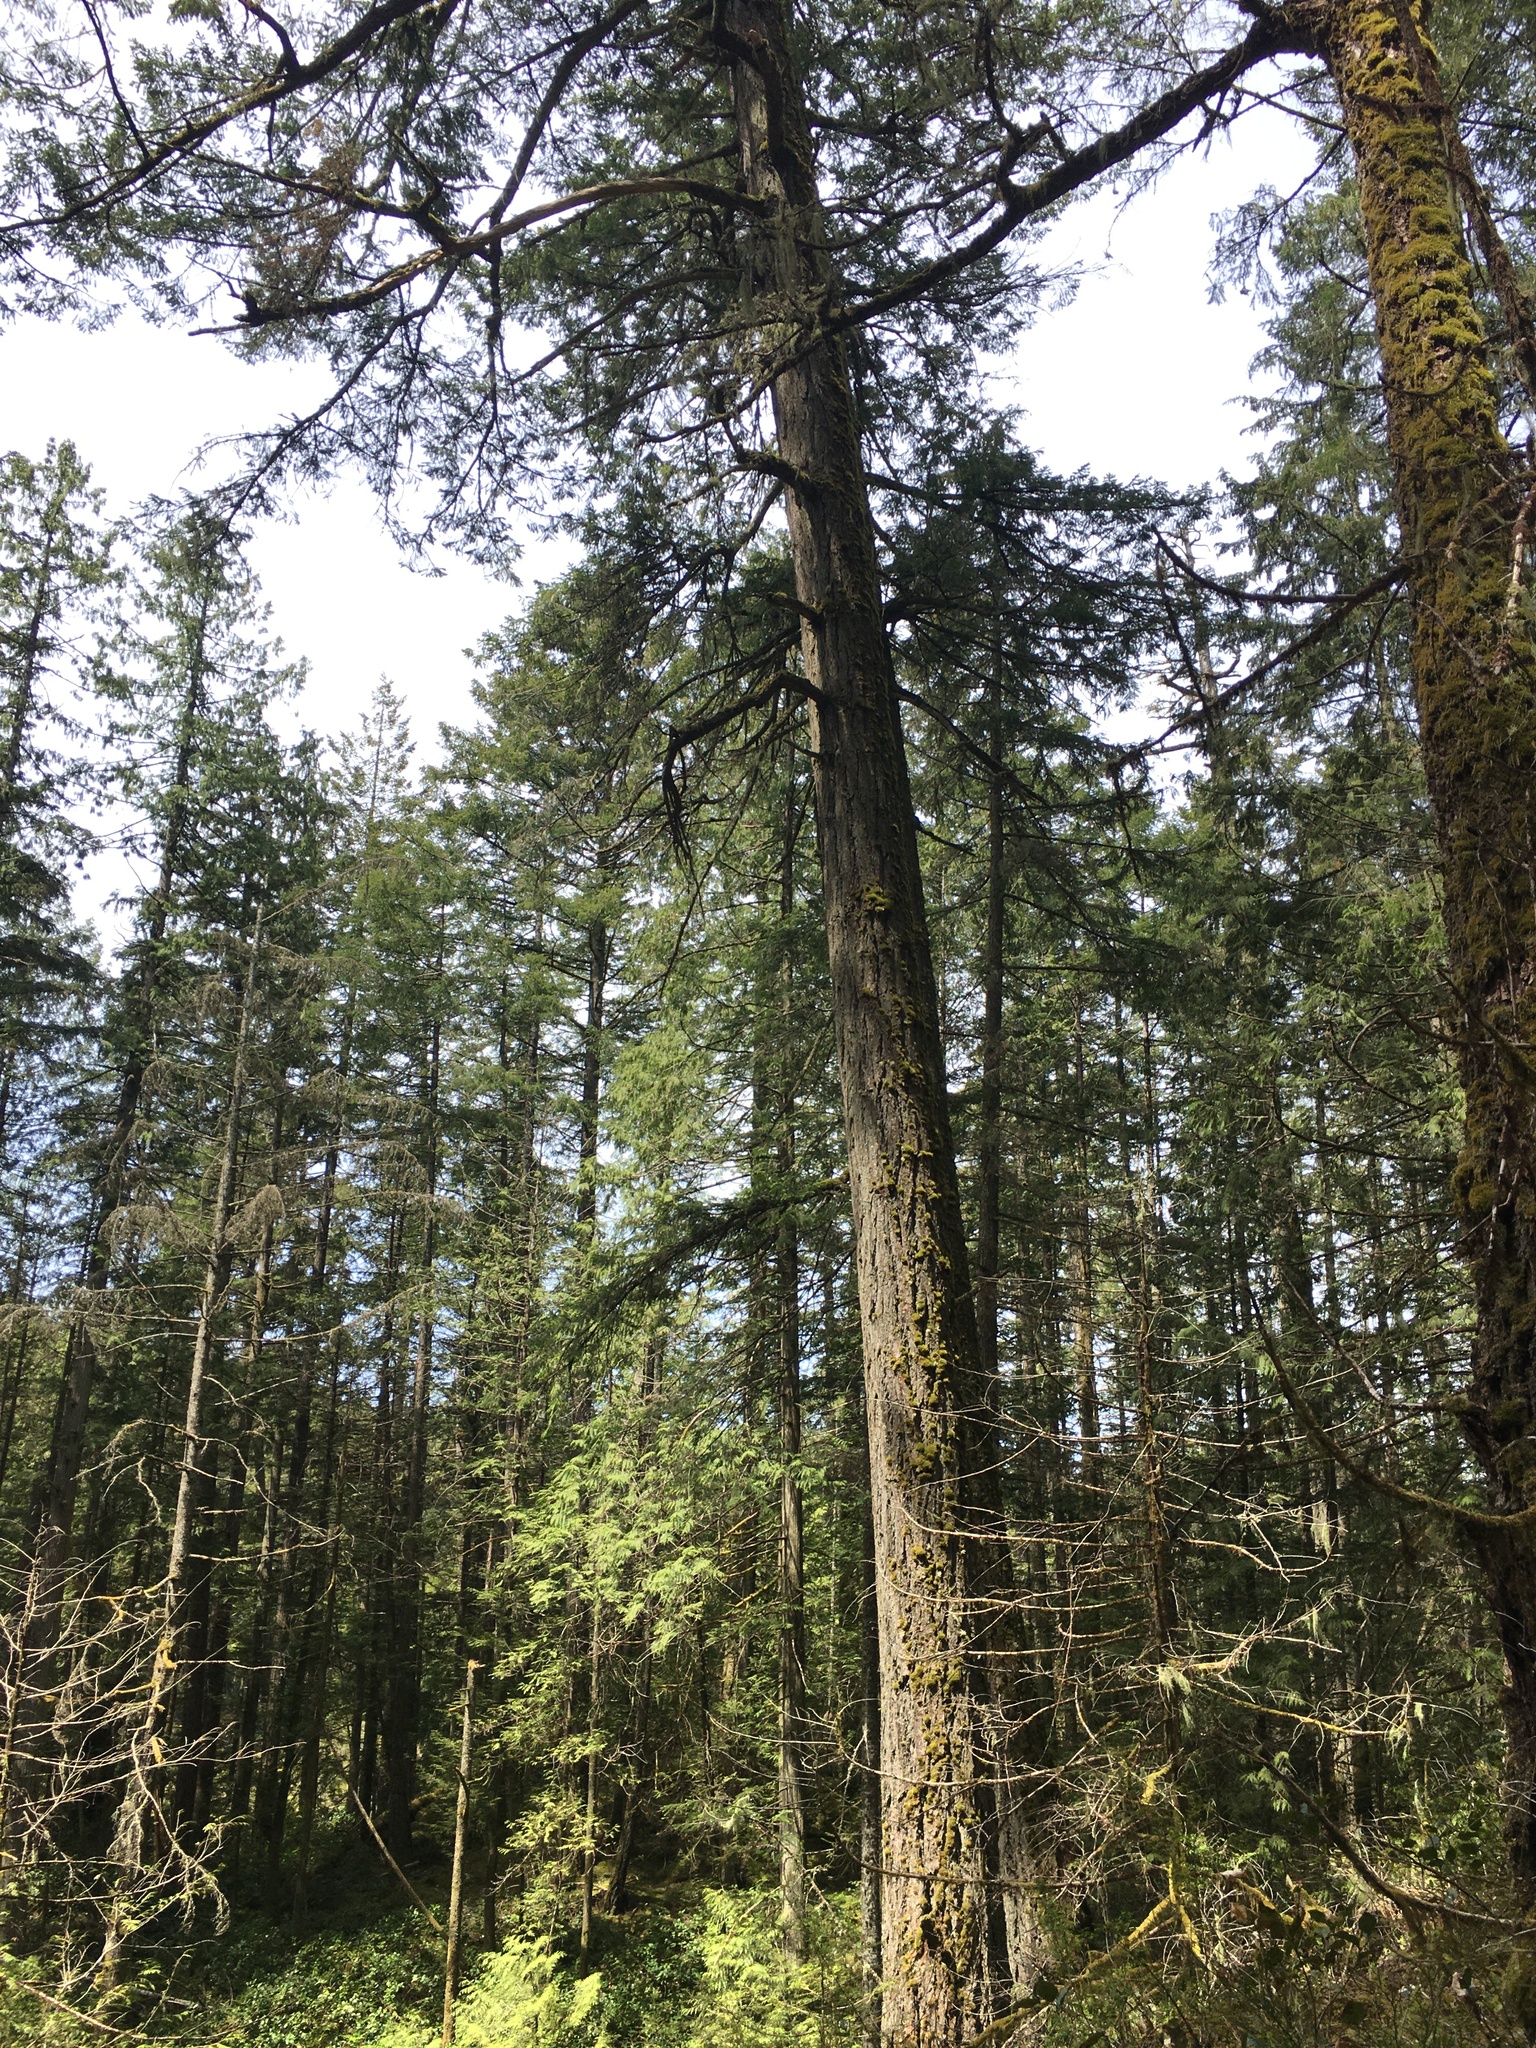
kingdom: Plantae
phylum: Tracheophyta
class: Pinopsida
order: Pinales
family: Pinaceae
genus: Pseudotsuga
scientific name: Pseudotsuga menziesii
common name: Douglas fir
